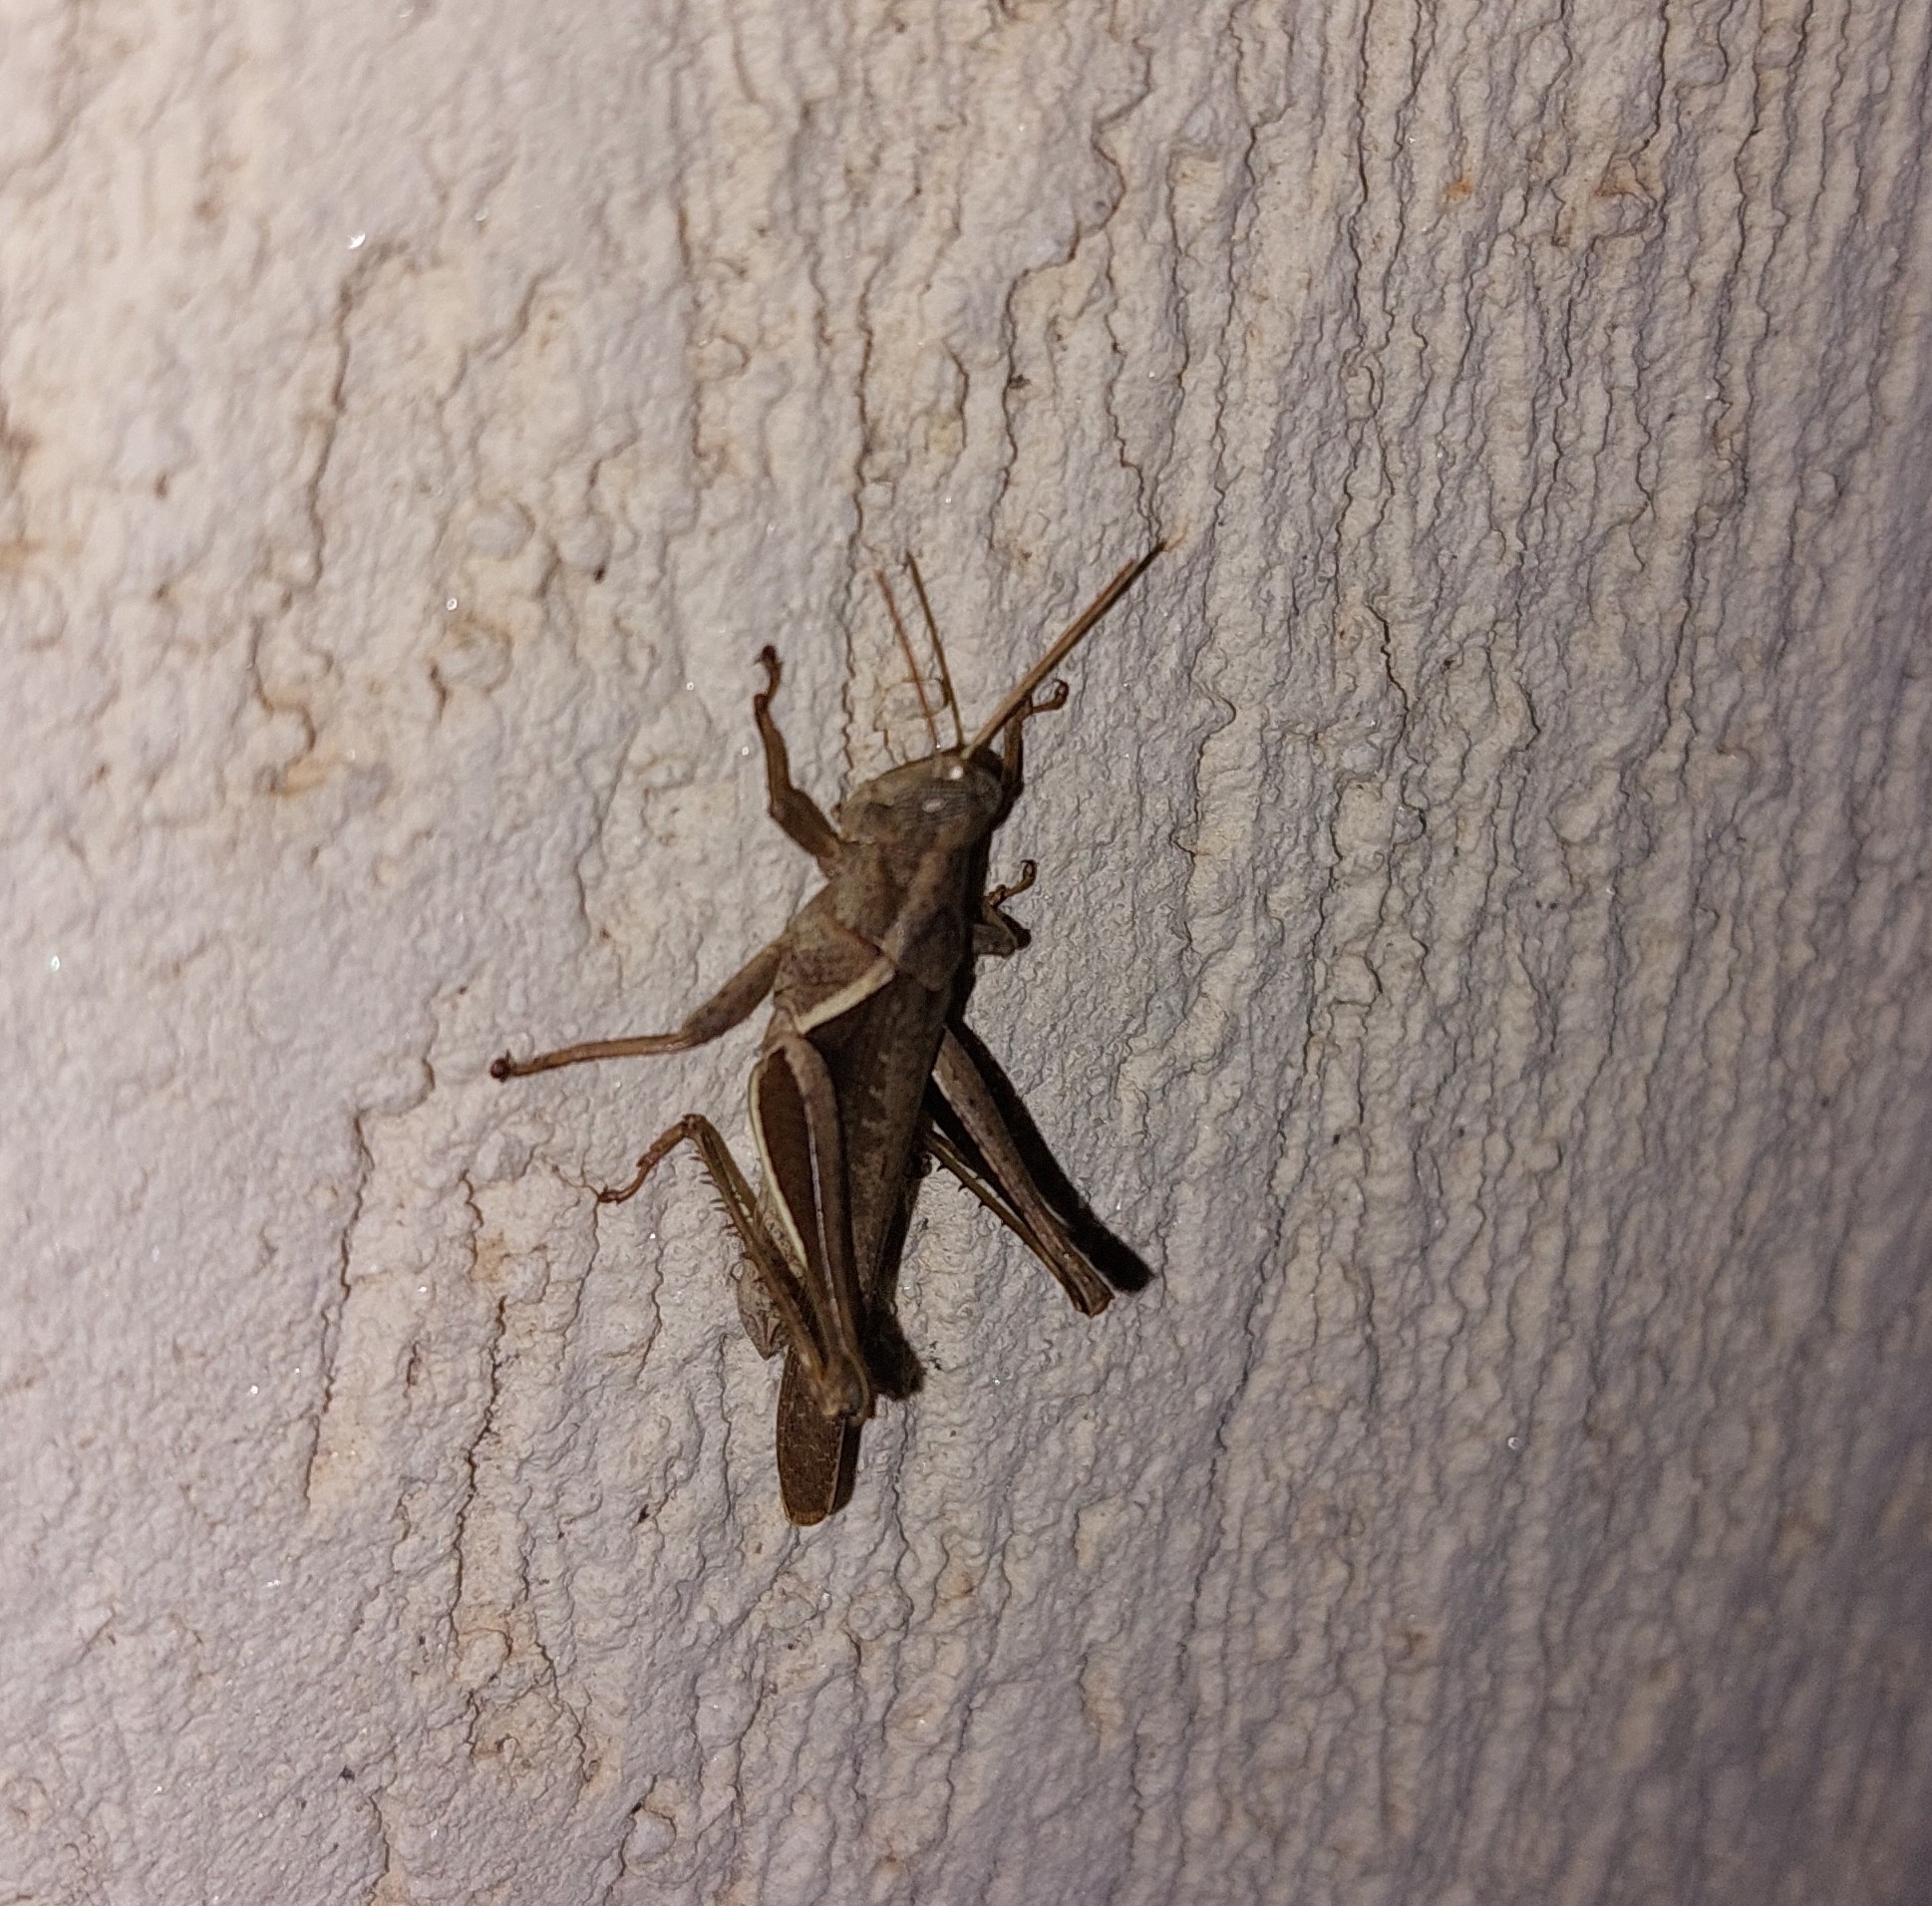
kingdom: Animalia
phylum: Arthropoda
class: Insecta
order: Orthoptera
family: Acrididae
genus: Abracris
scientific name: Abracris flavolineata
